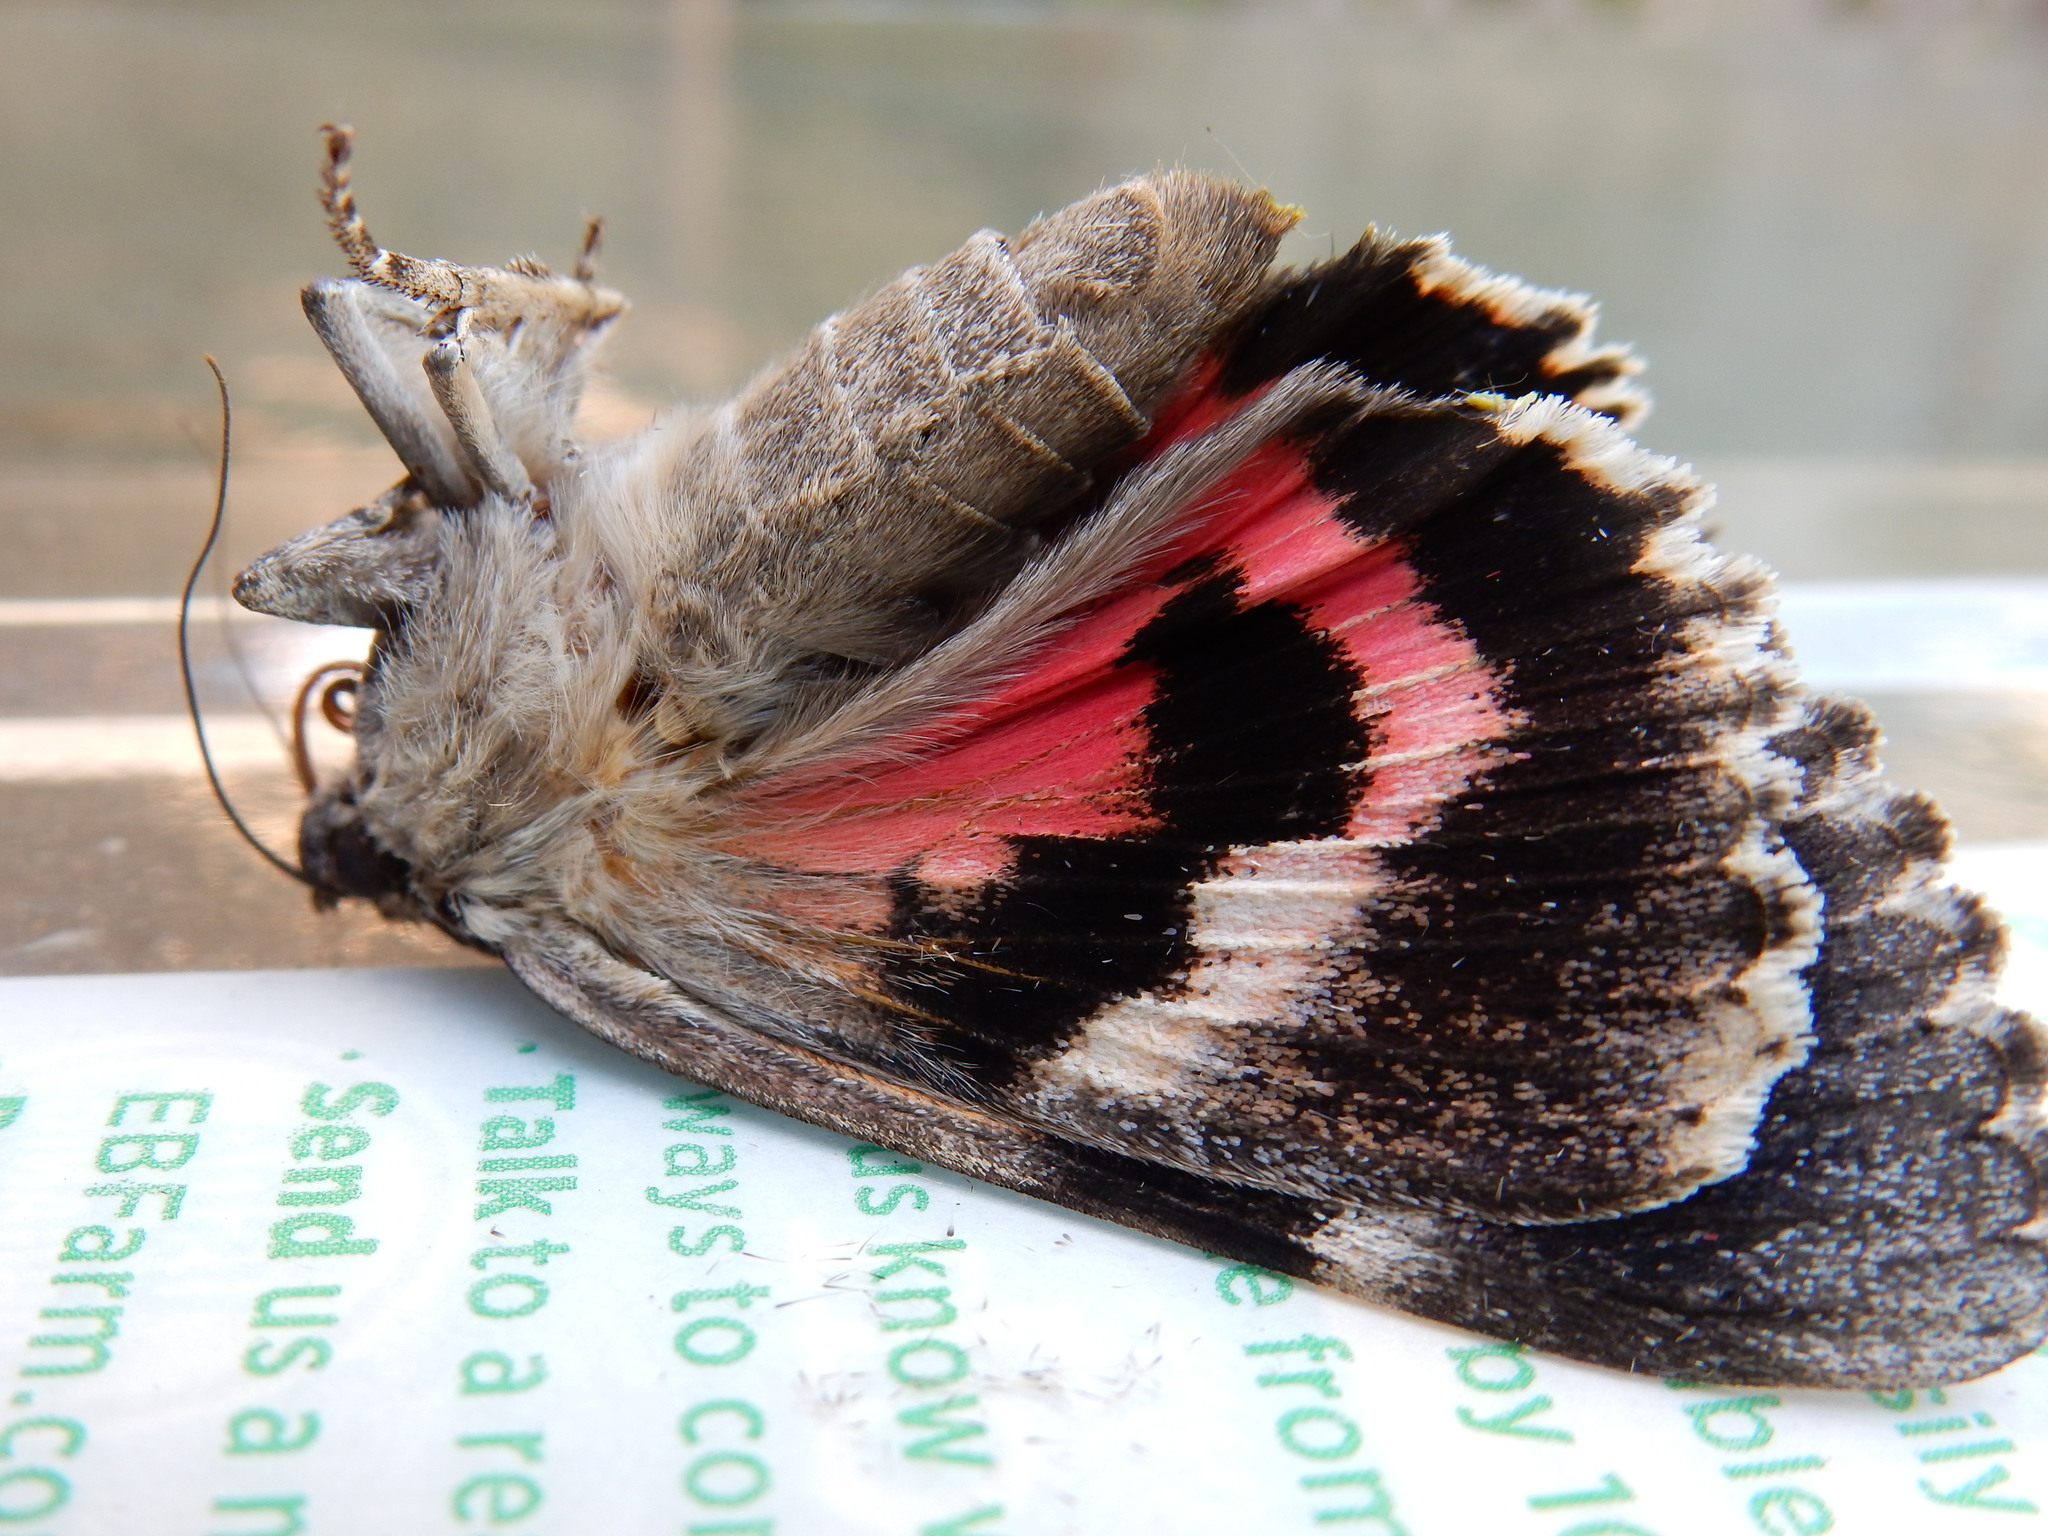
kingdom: Animalia
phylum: Arthropoda
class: Insecta
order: Lepidoptera
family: Erebidae
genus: Catocala
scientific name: Catocala aholibah
